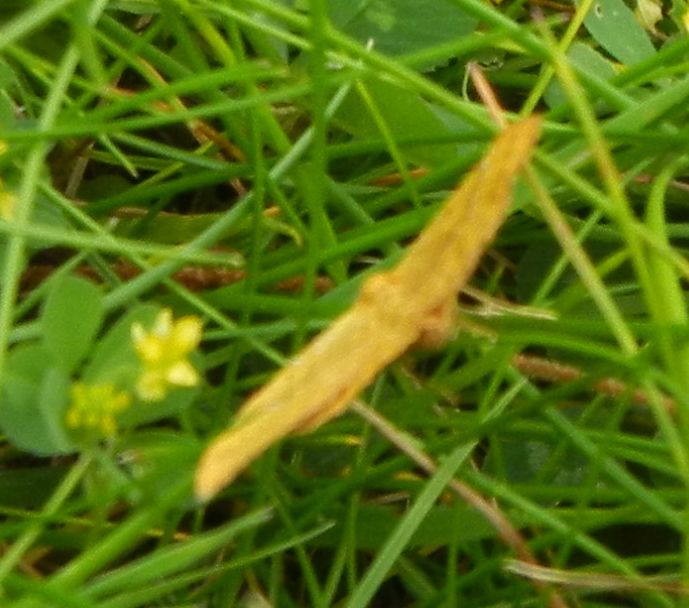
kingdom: Animalia
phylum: Arthropoda
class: Insecta
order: Lepidoptera
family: Geometridae
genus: Camptogramma
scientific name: Camptogramma bilineata
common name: Yellow shell
